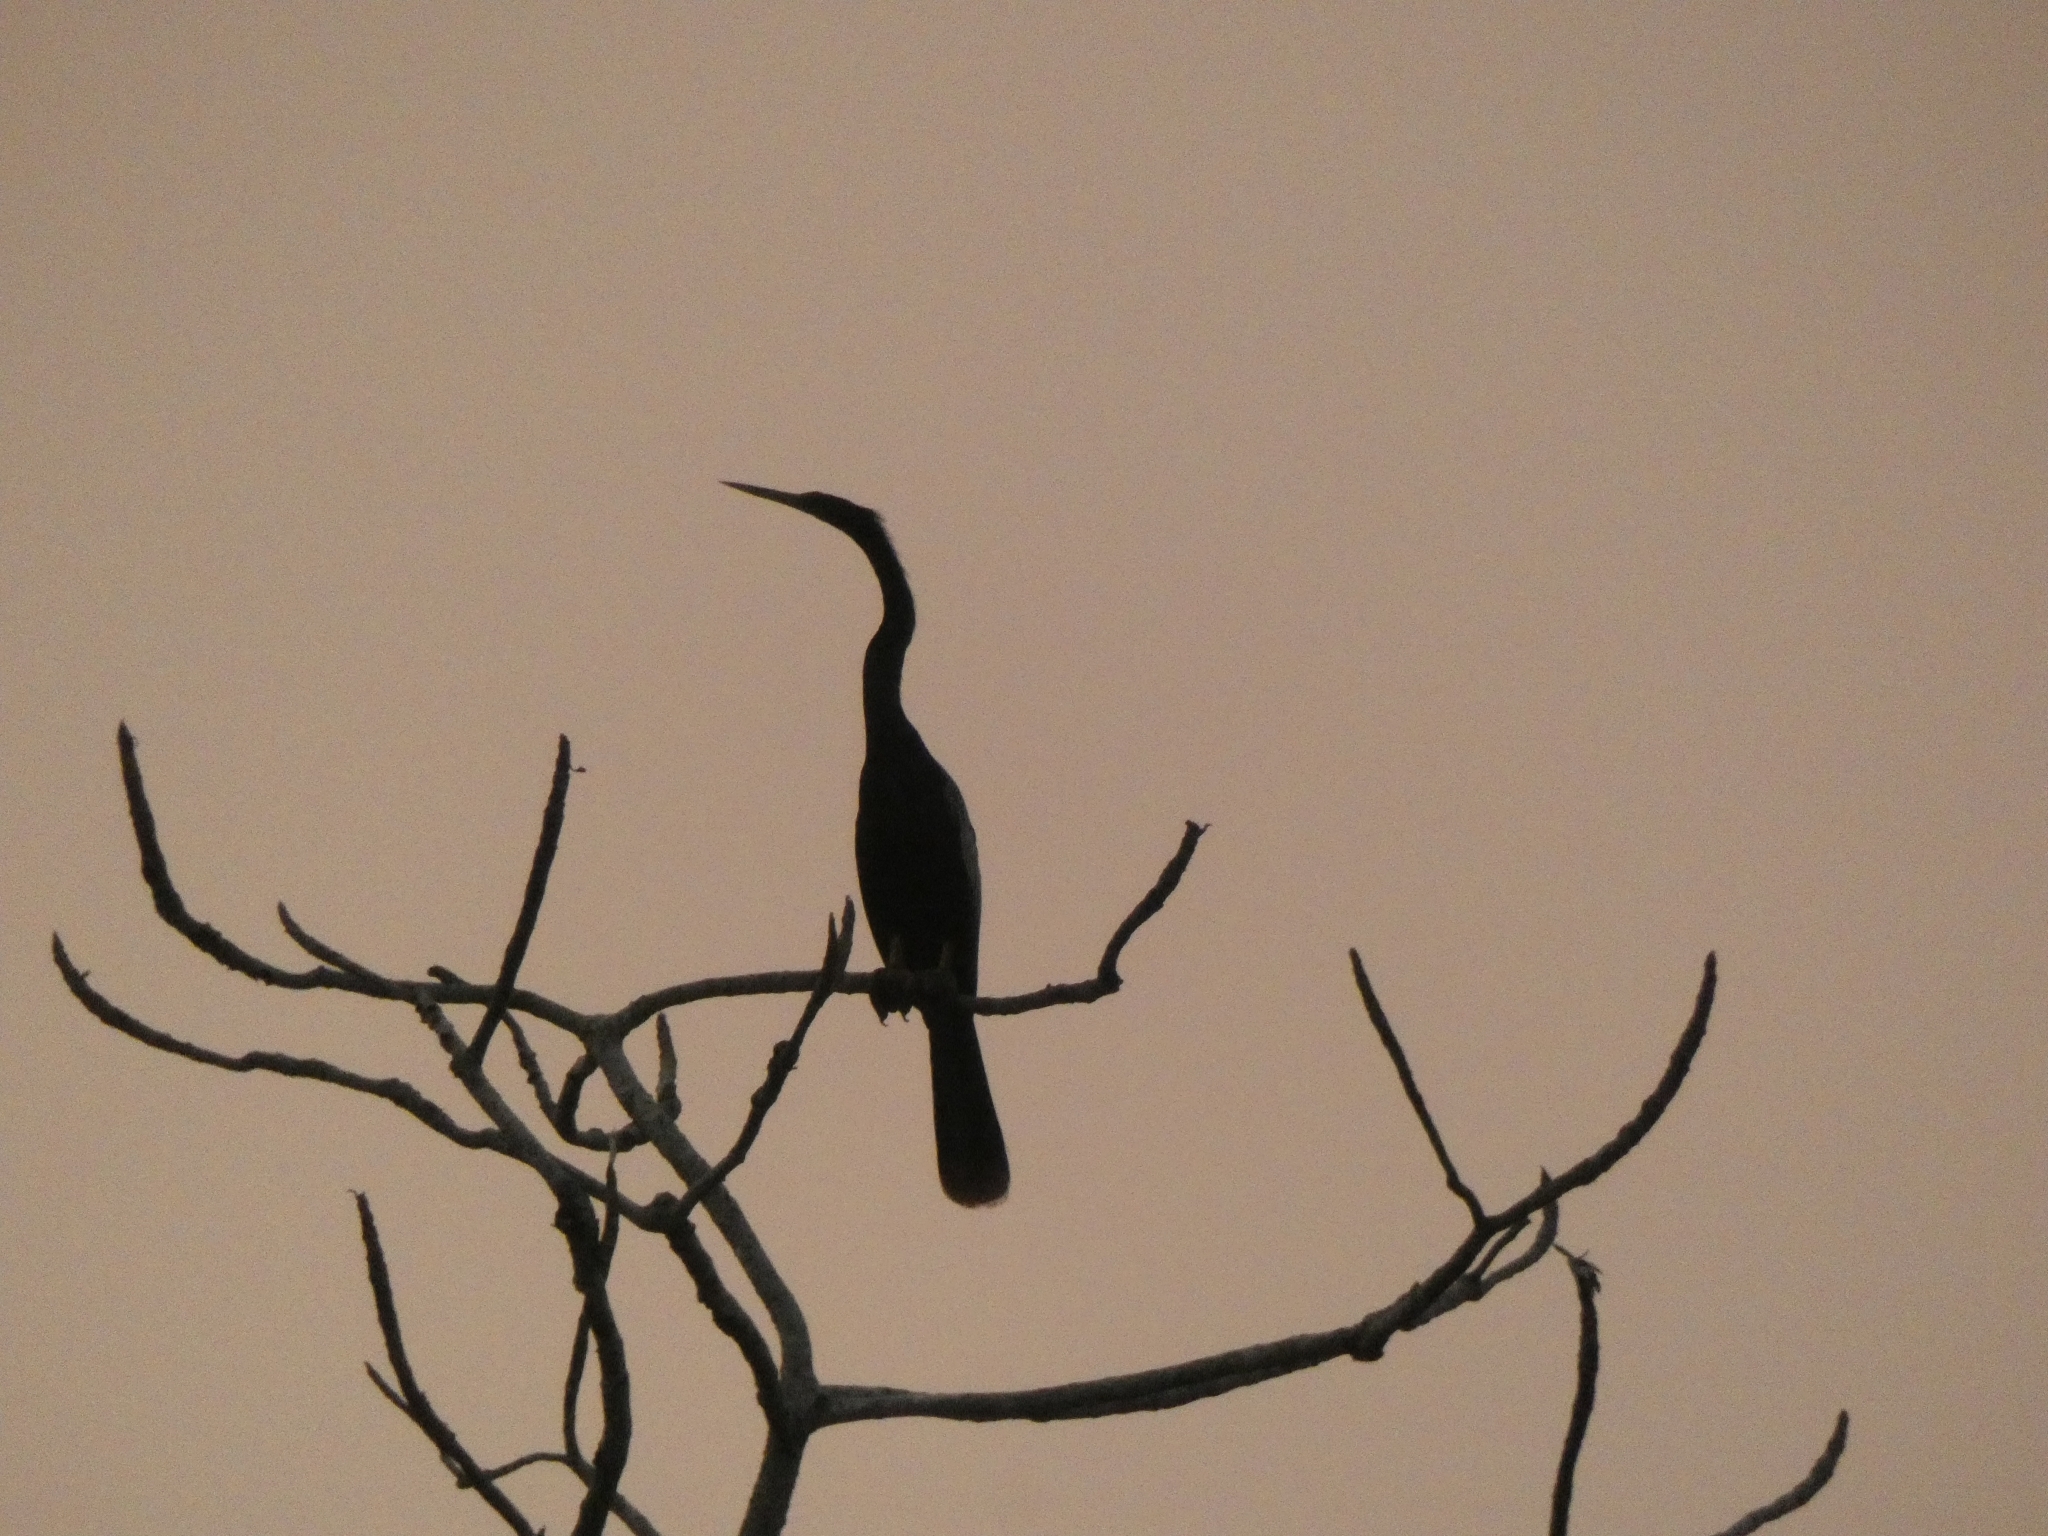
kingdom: Animalia
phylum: Chordata
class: Aves
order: Suliformes
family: Anhingidae
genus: Anhinga
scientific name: Anhinga anhinga
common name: Anhinga
